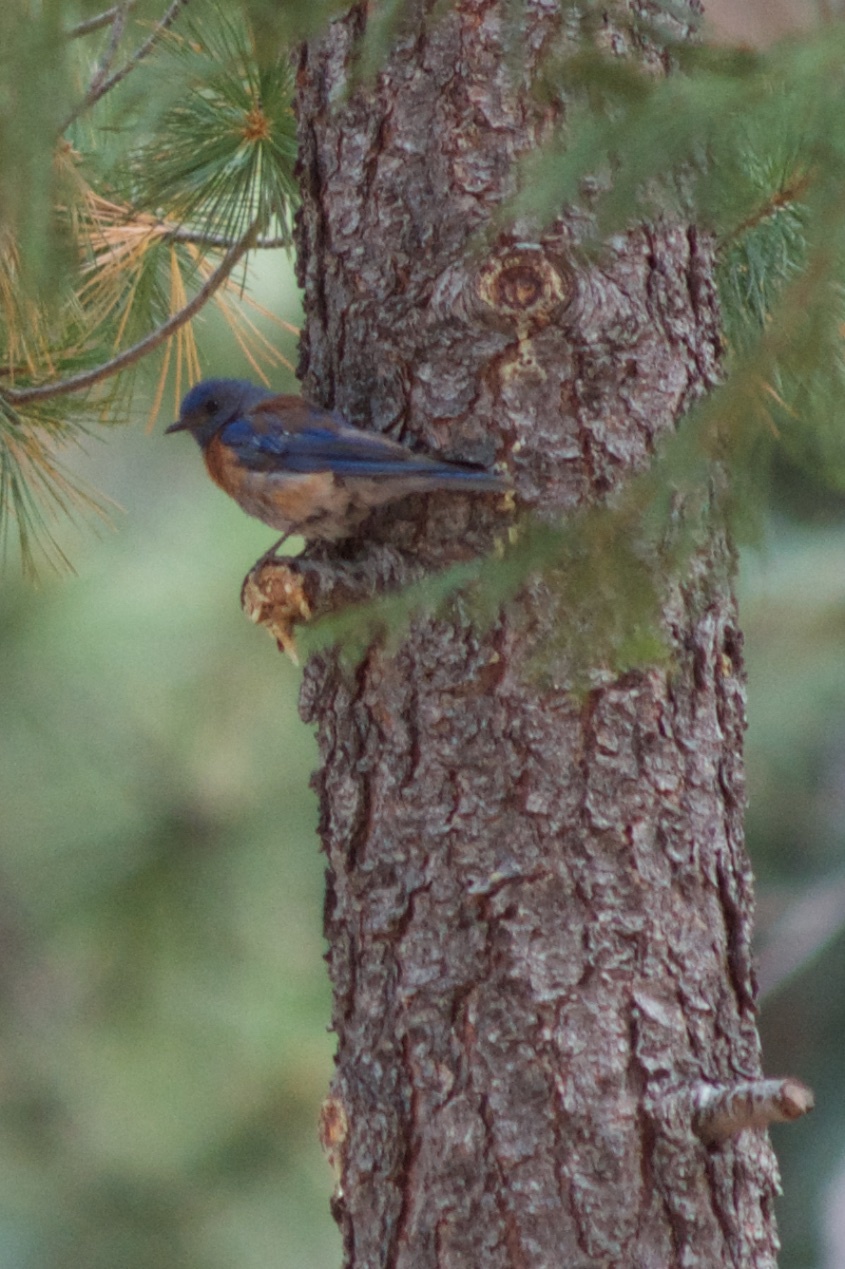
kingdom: Animalia
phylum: Chordata
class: Aves
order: Passeriformes
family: Turdidae
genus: Sialia
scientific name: Sialia mexicana
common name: Western bluebird
